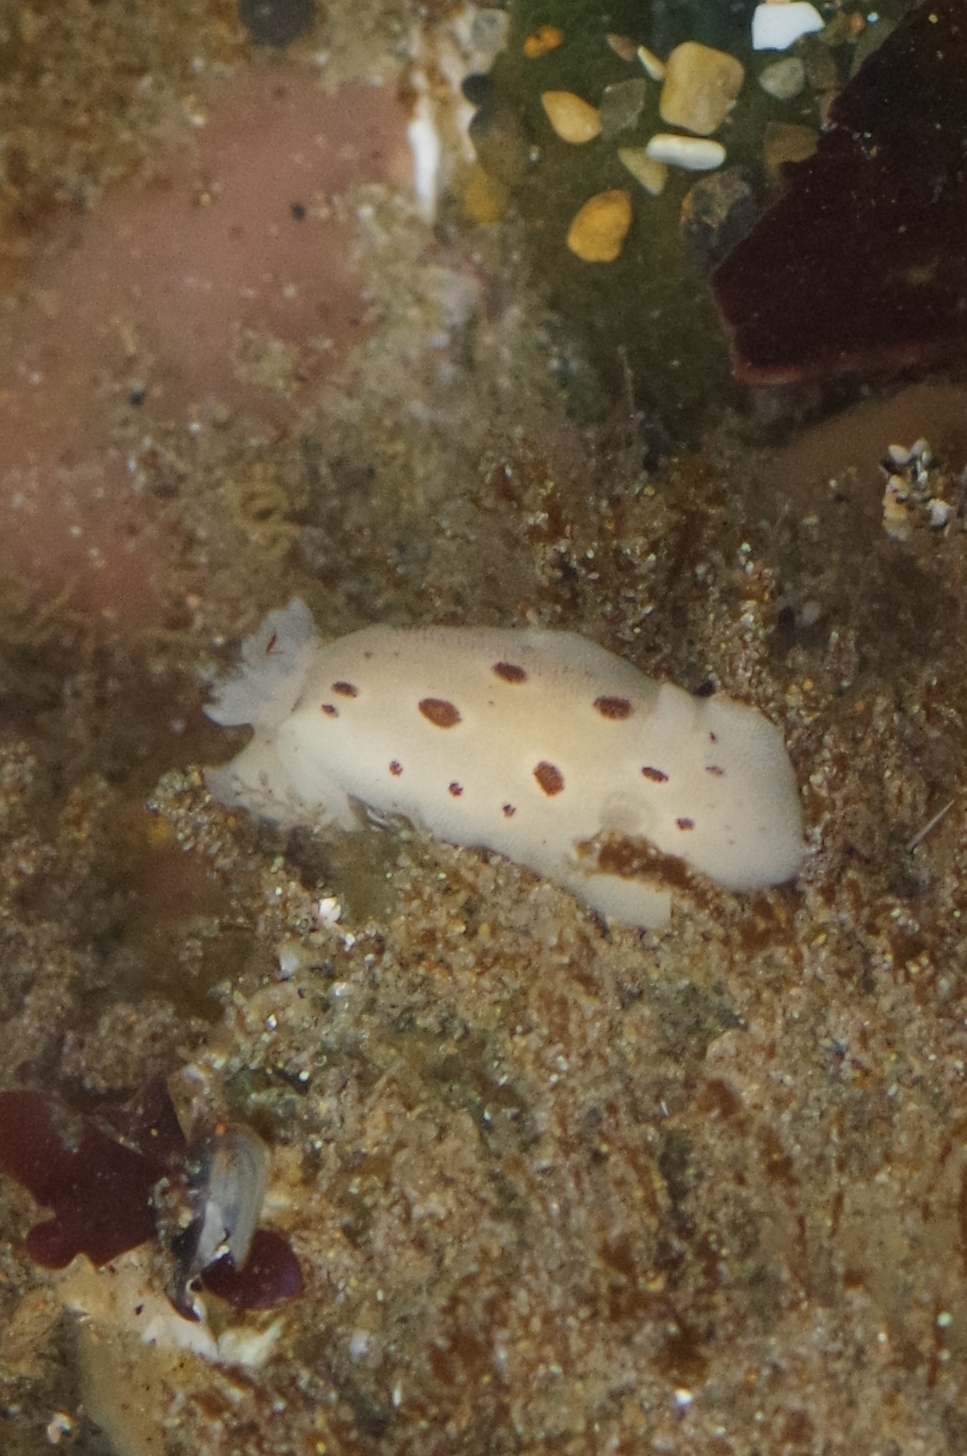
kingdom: Animalia
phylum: Mollusca
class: Gastropoda
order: Nudibranchia
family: Discodorididae
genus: Diaulula
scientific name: Diaulula sandiegensis
